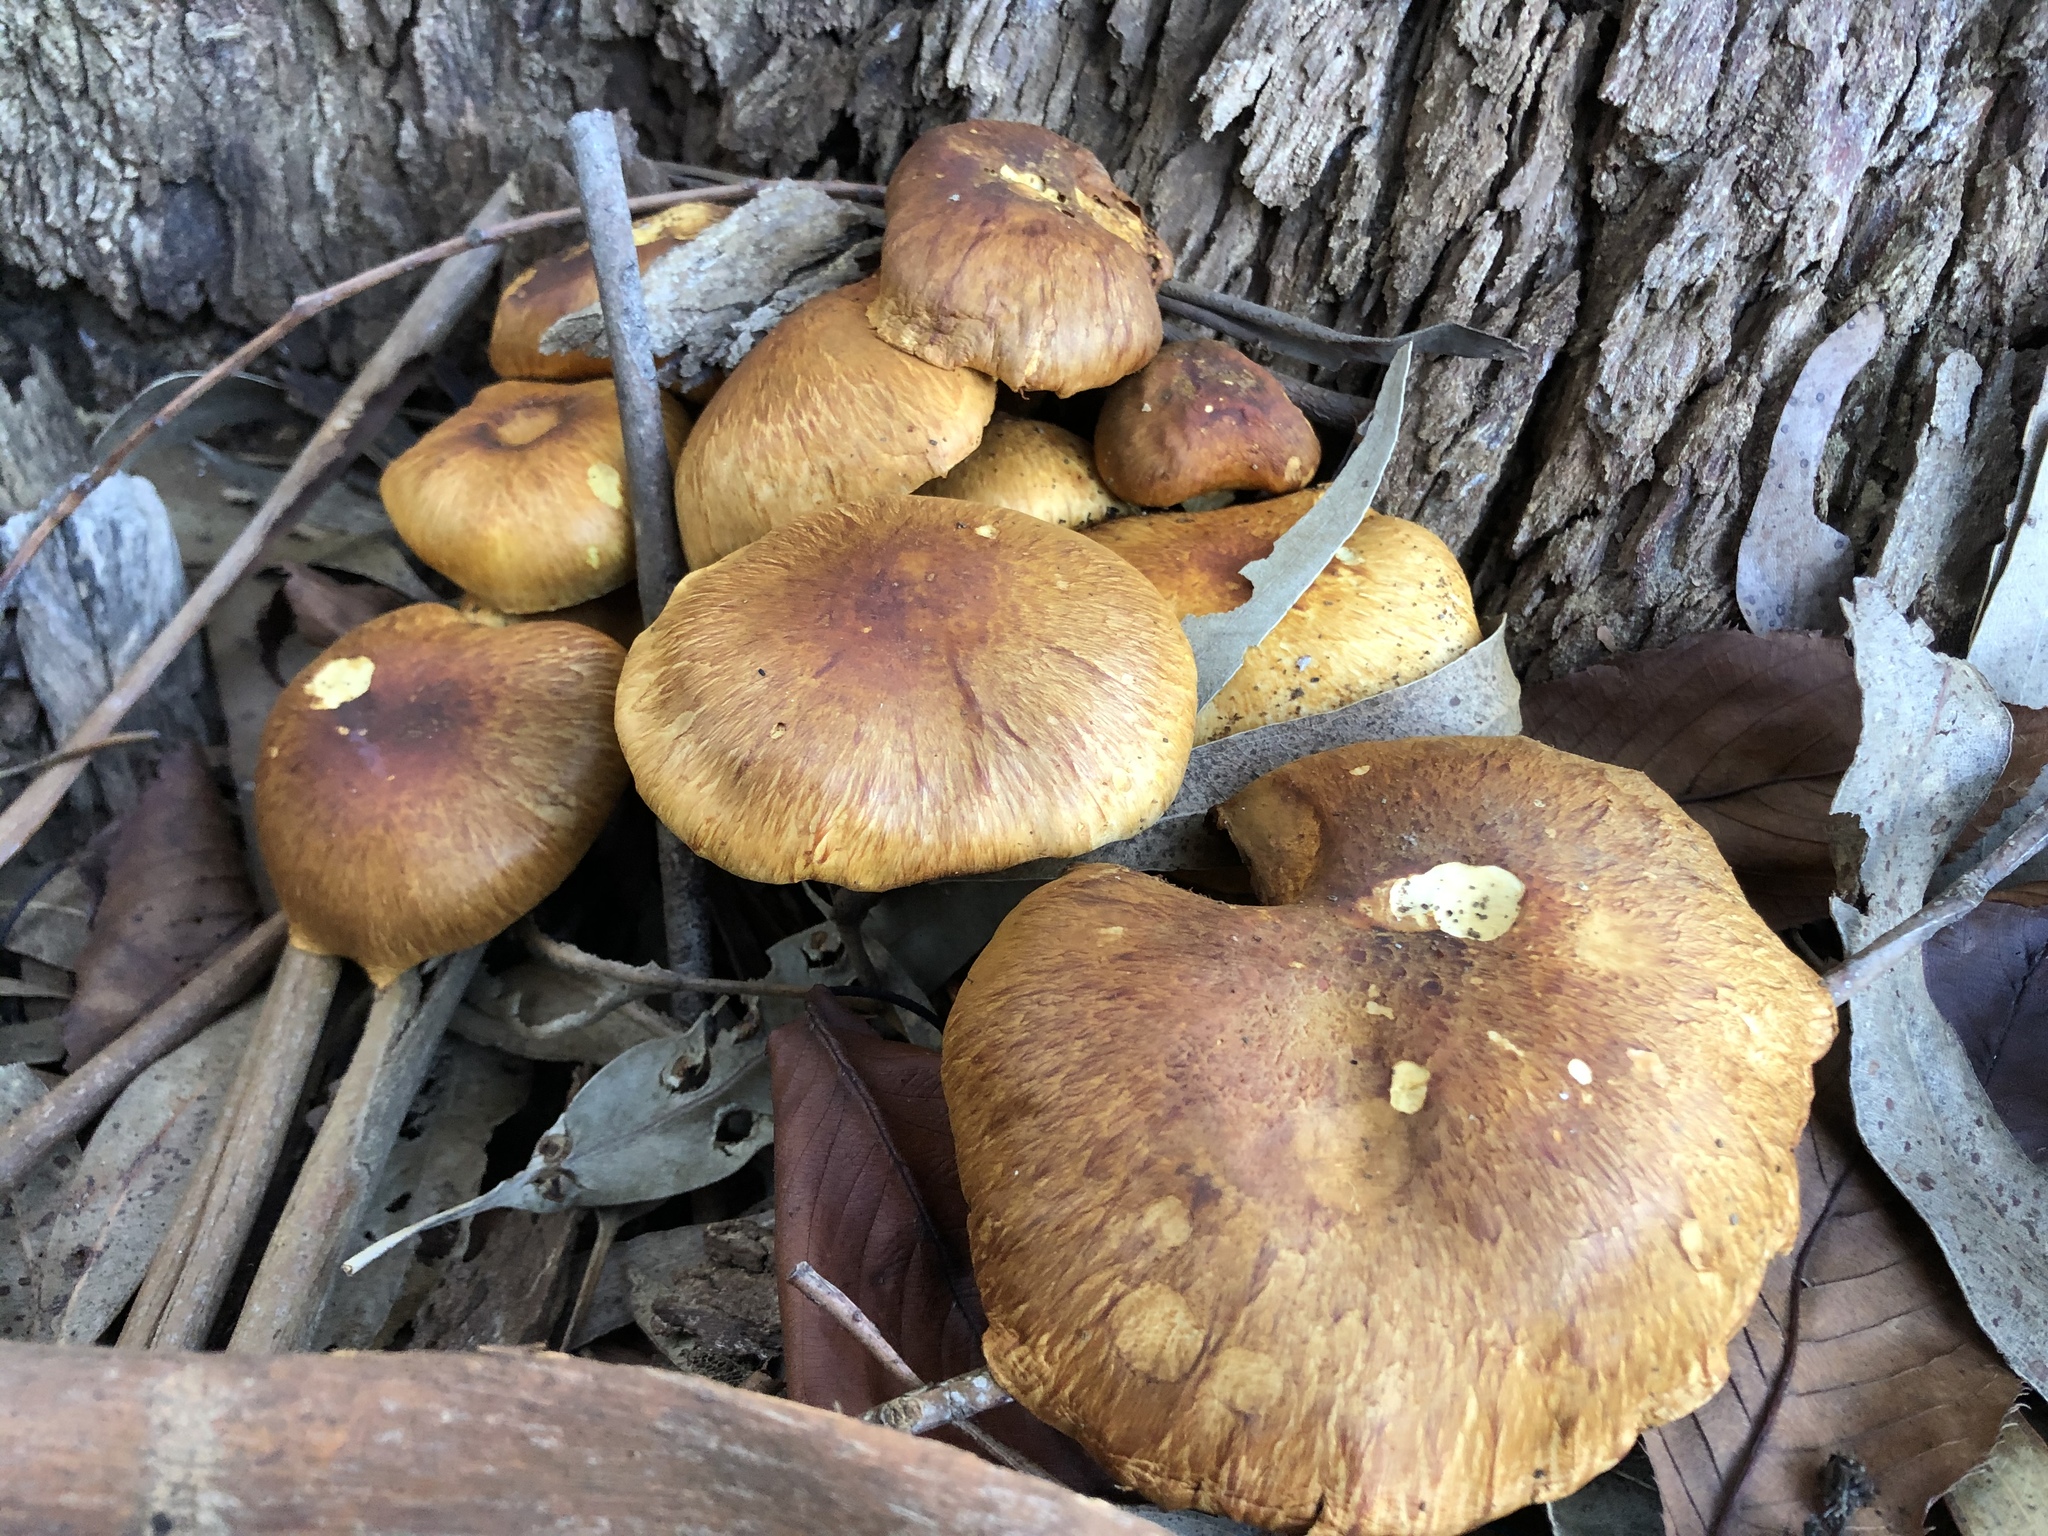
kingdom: Fungi
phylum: Basidiomycota
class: Agaricomycetes
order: Agaricales
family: Hymenogastraceae
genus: Gymnopilus
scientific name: Gymnopilus junonius
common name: Spectacular rustgill
